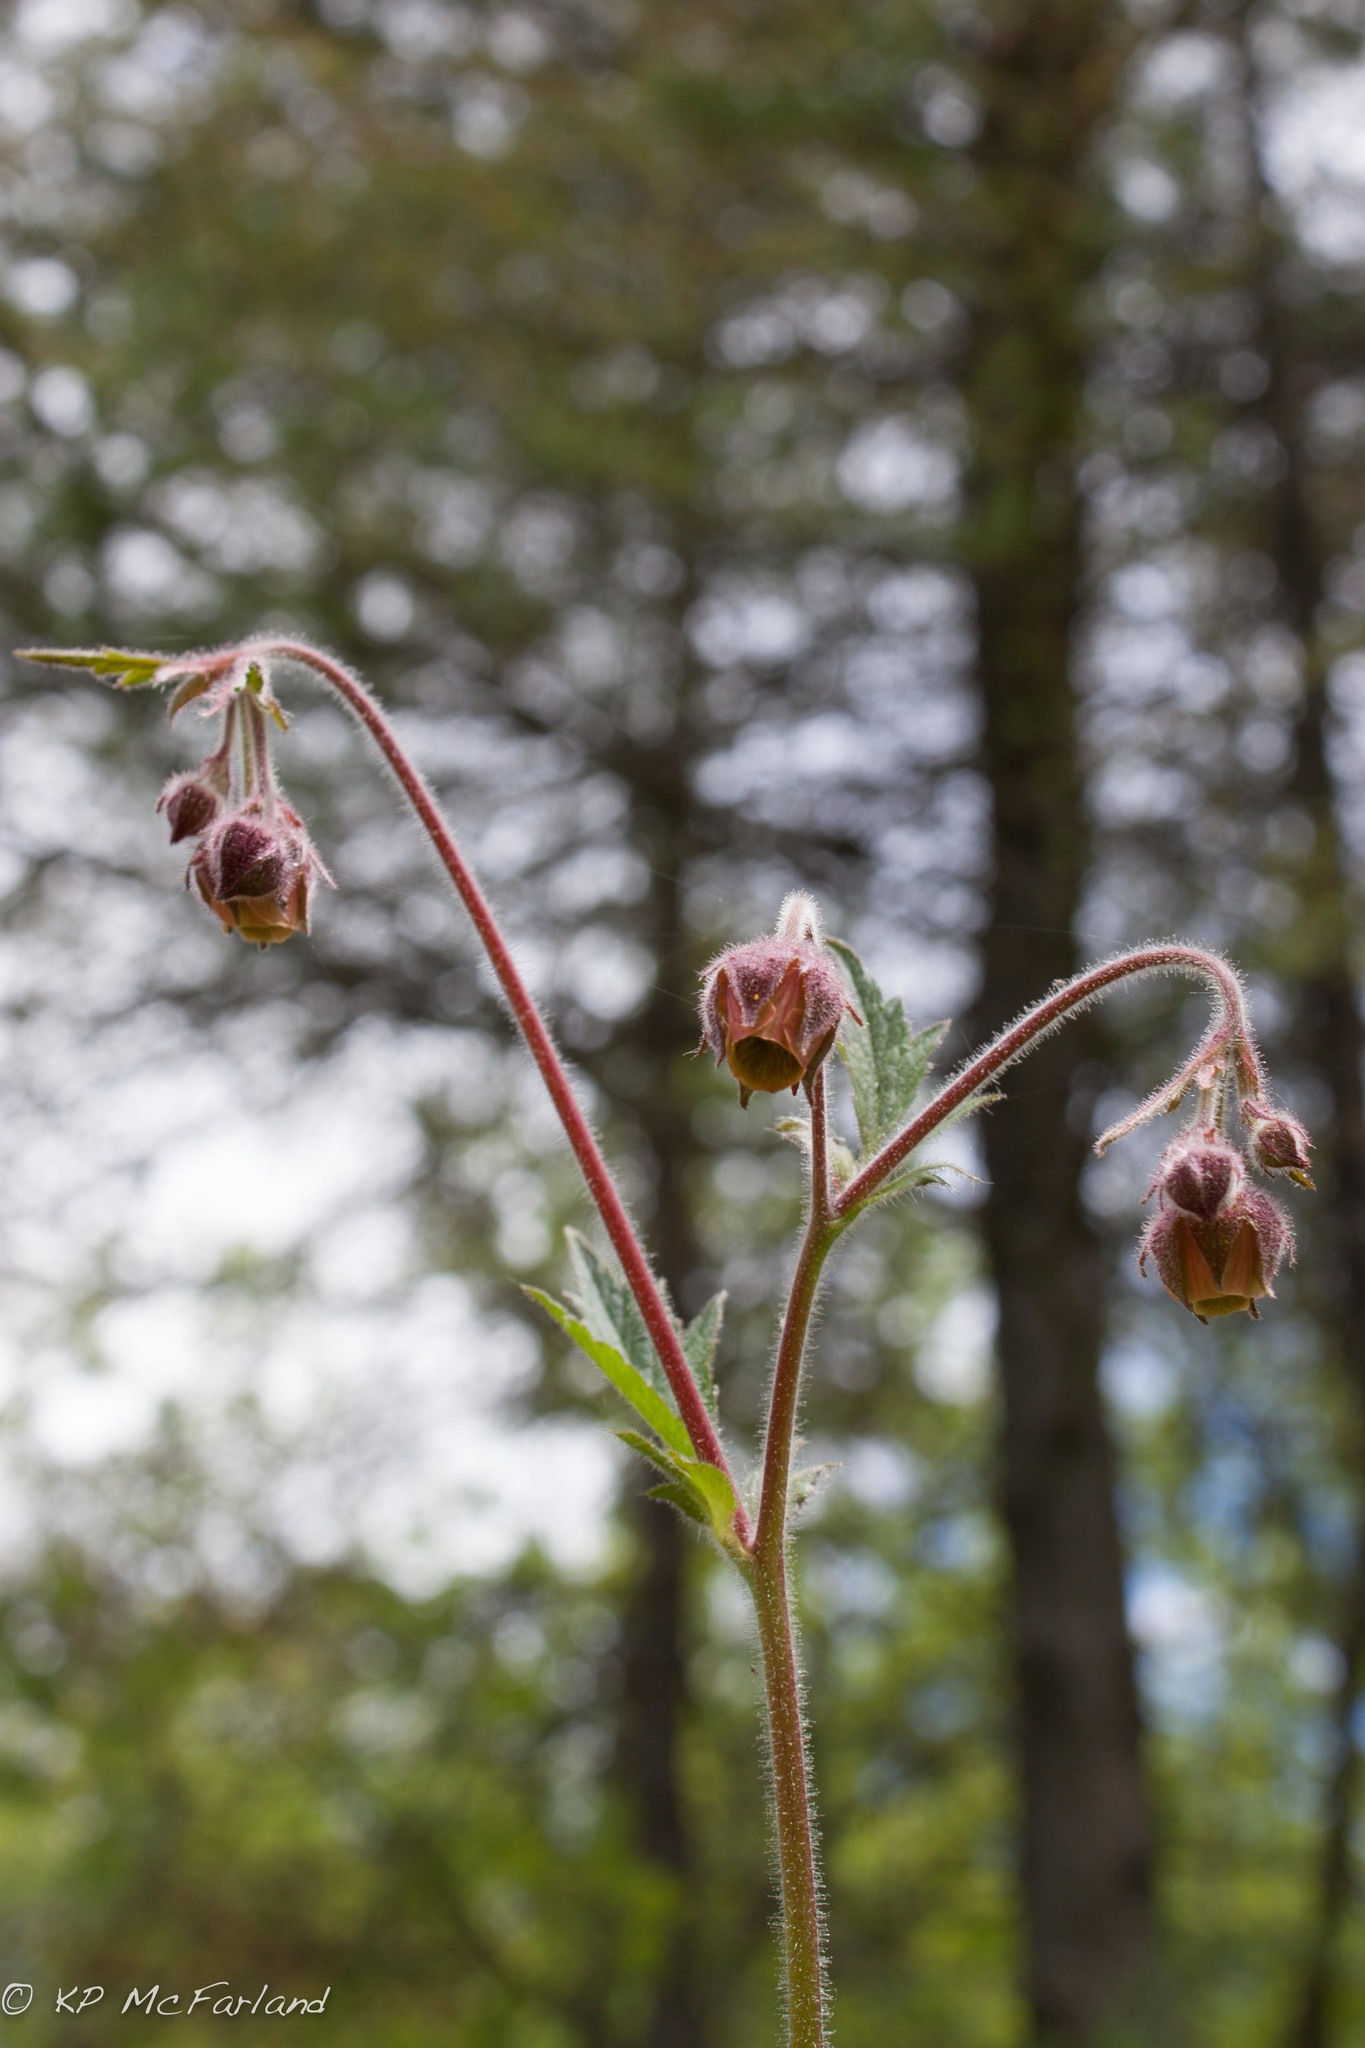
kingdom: Plantae
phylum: Tracheophyta
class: Magnoliopsida
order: Rosales
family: Rosaceae
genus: Geum
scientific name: Geum rivale
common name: Water avens
